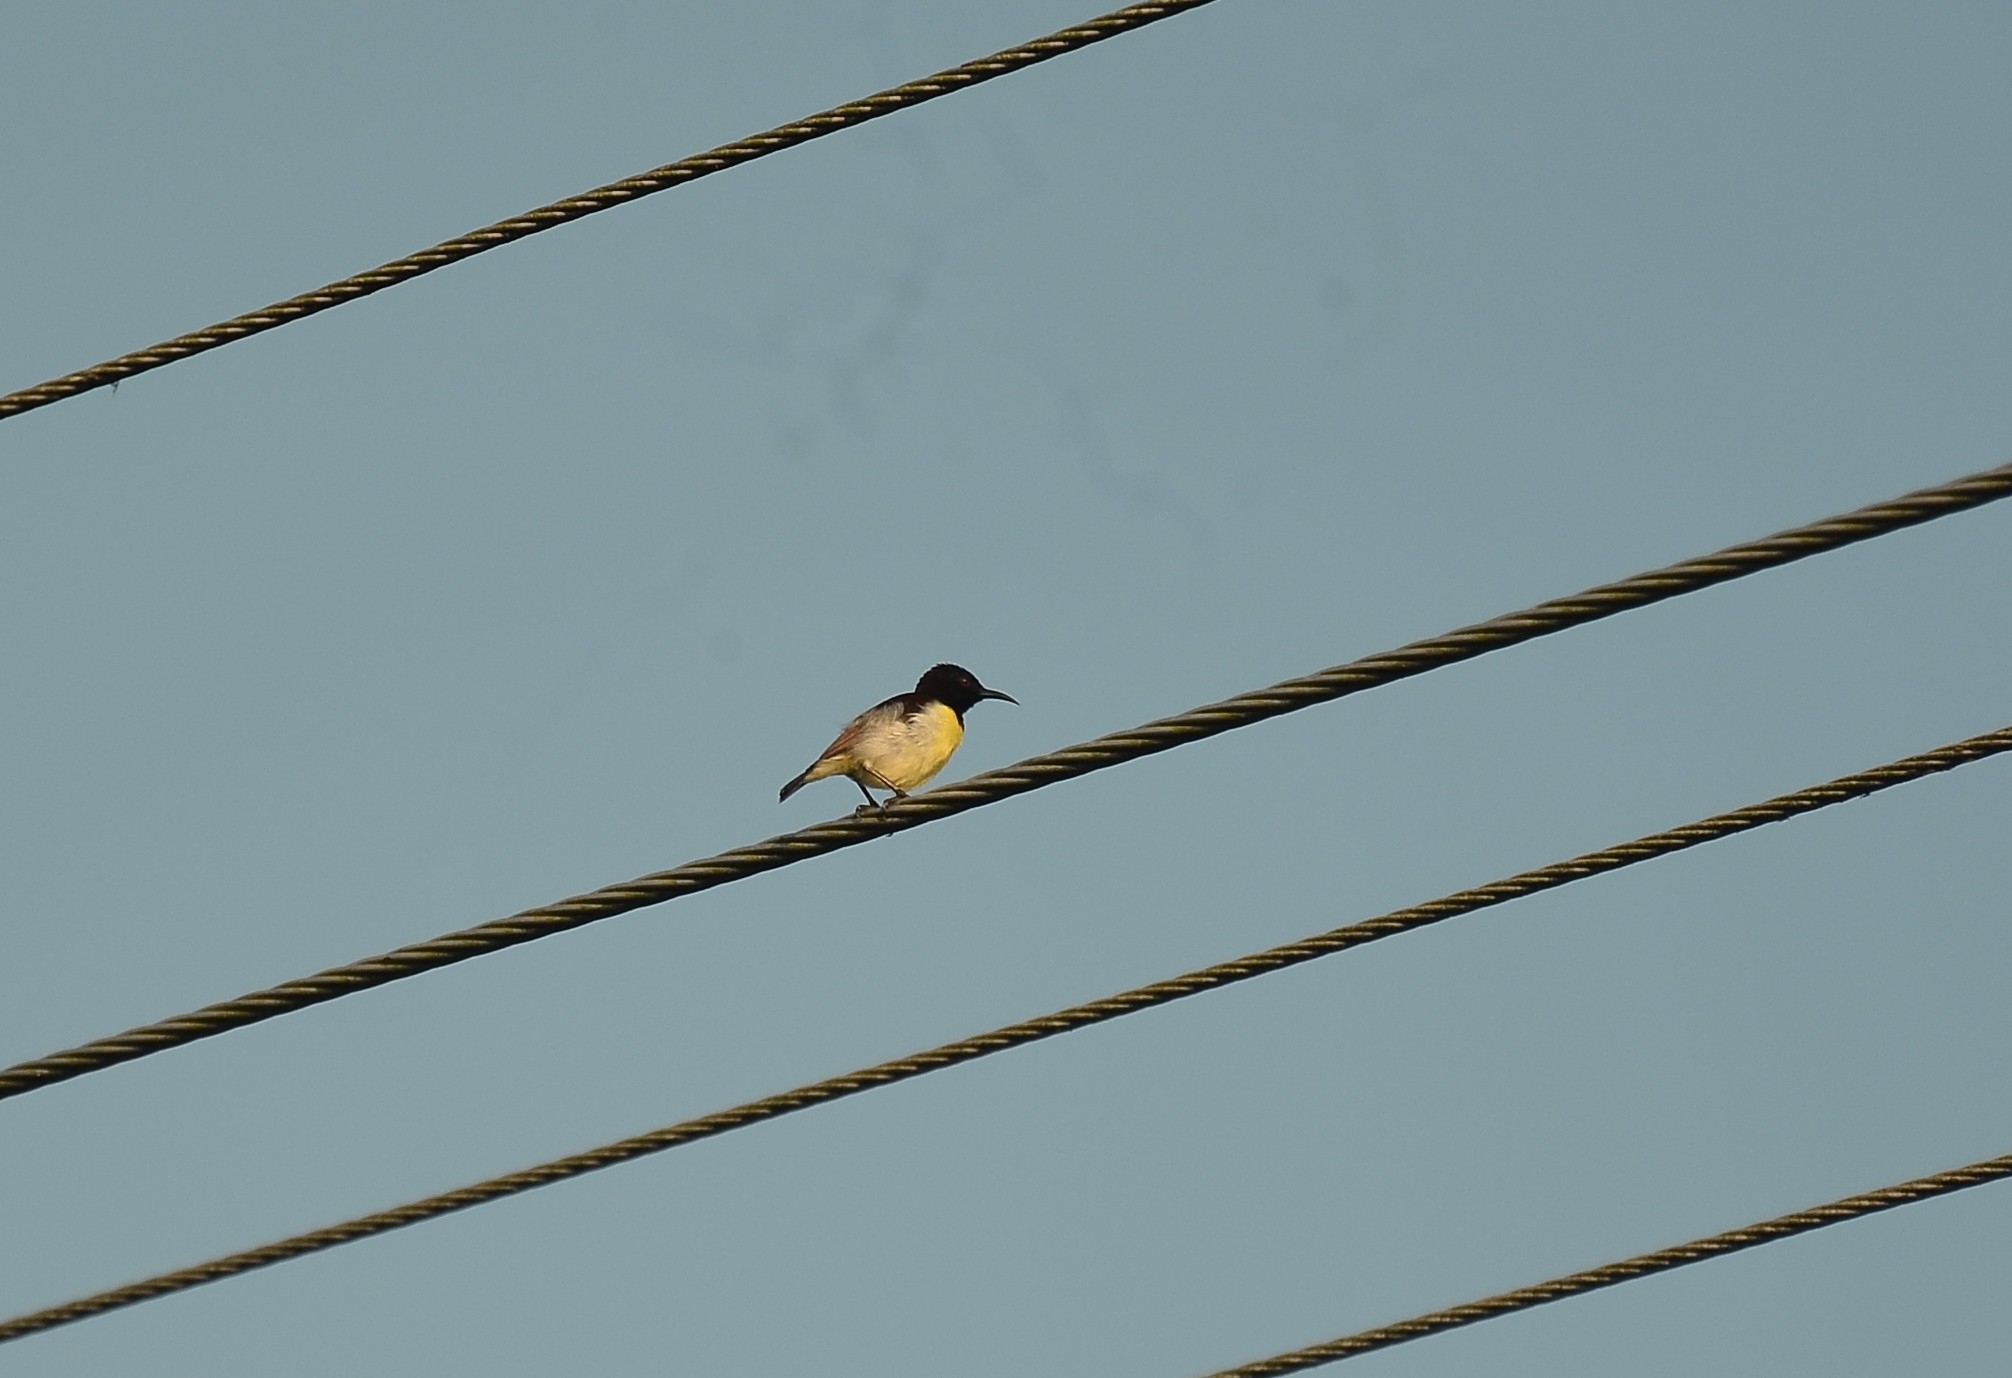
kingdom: Animalia
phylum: Chordata
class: Aves
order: Passeriformes
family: Nectariniidae
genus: Leptocoma
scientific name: Leptocoma zeylonica
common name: Purple-rumped sunbird
